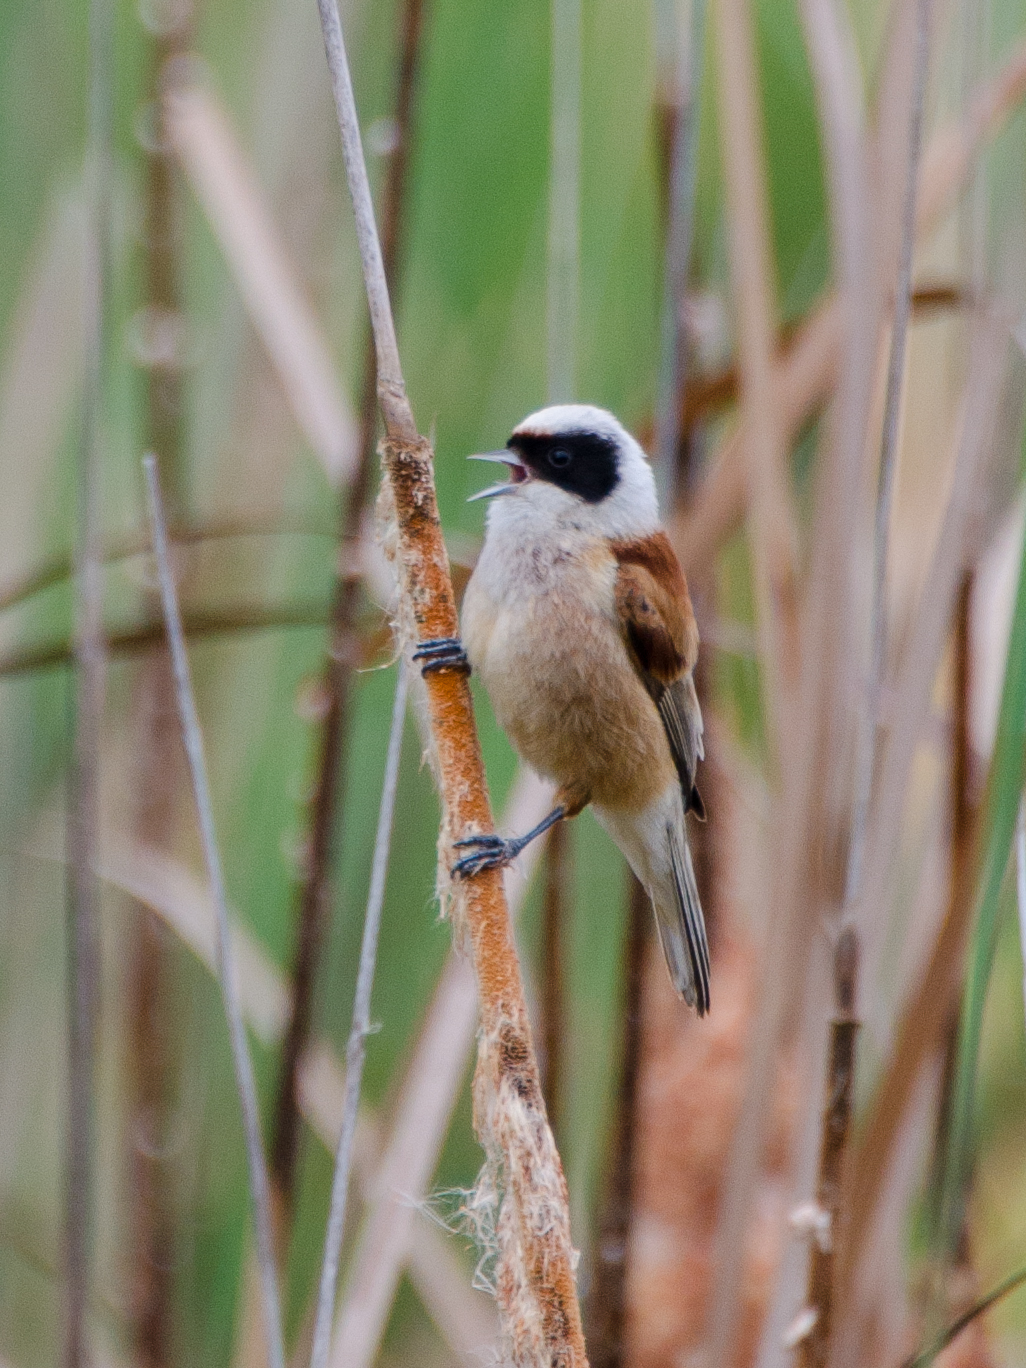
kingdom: Animalia
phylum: Chordata
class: Aves
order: Passeriformes
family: Remizidae
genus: Remiz
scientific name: Remiz pendulinus
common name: Eurasian penduline tit
